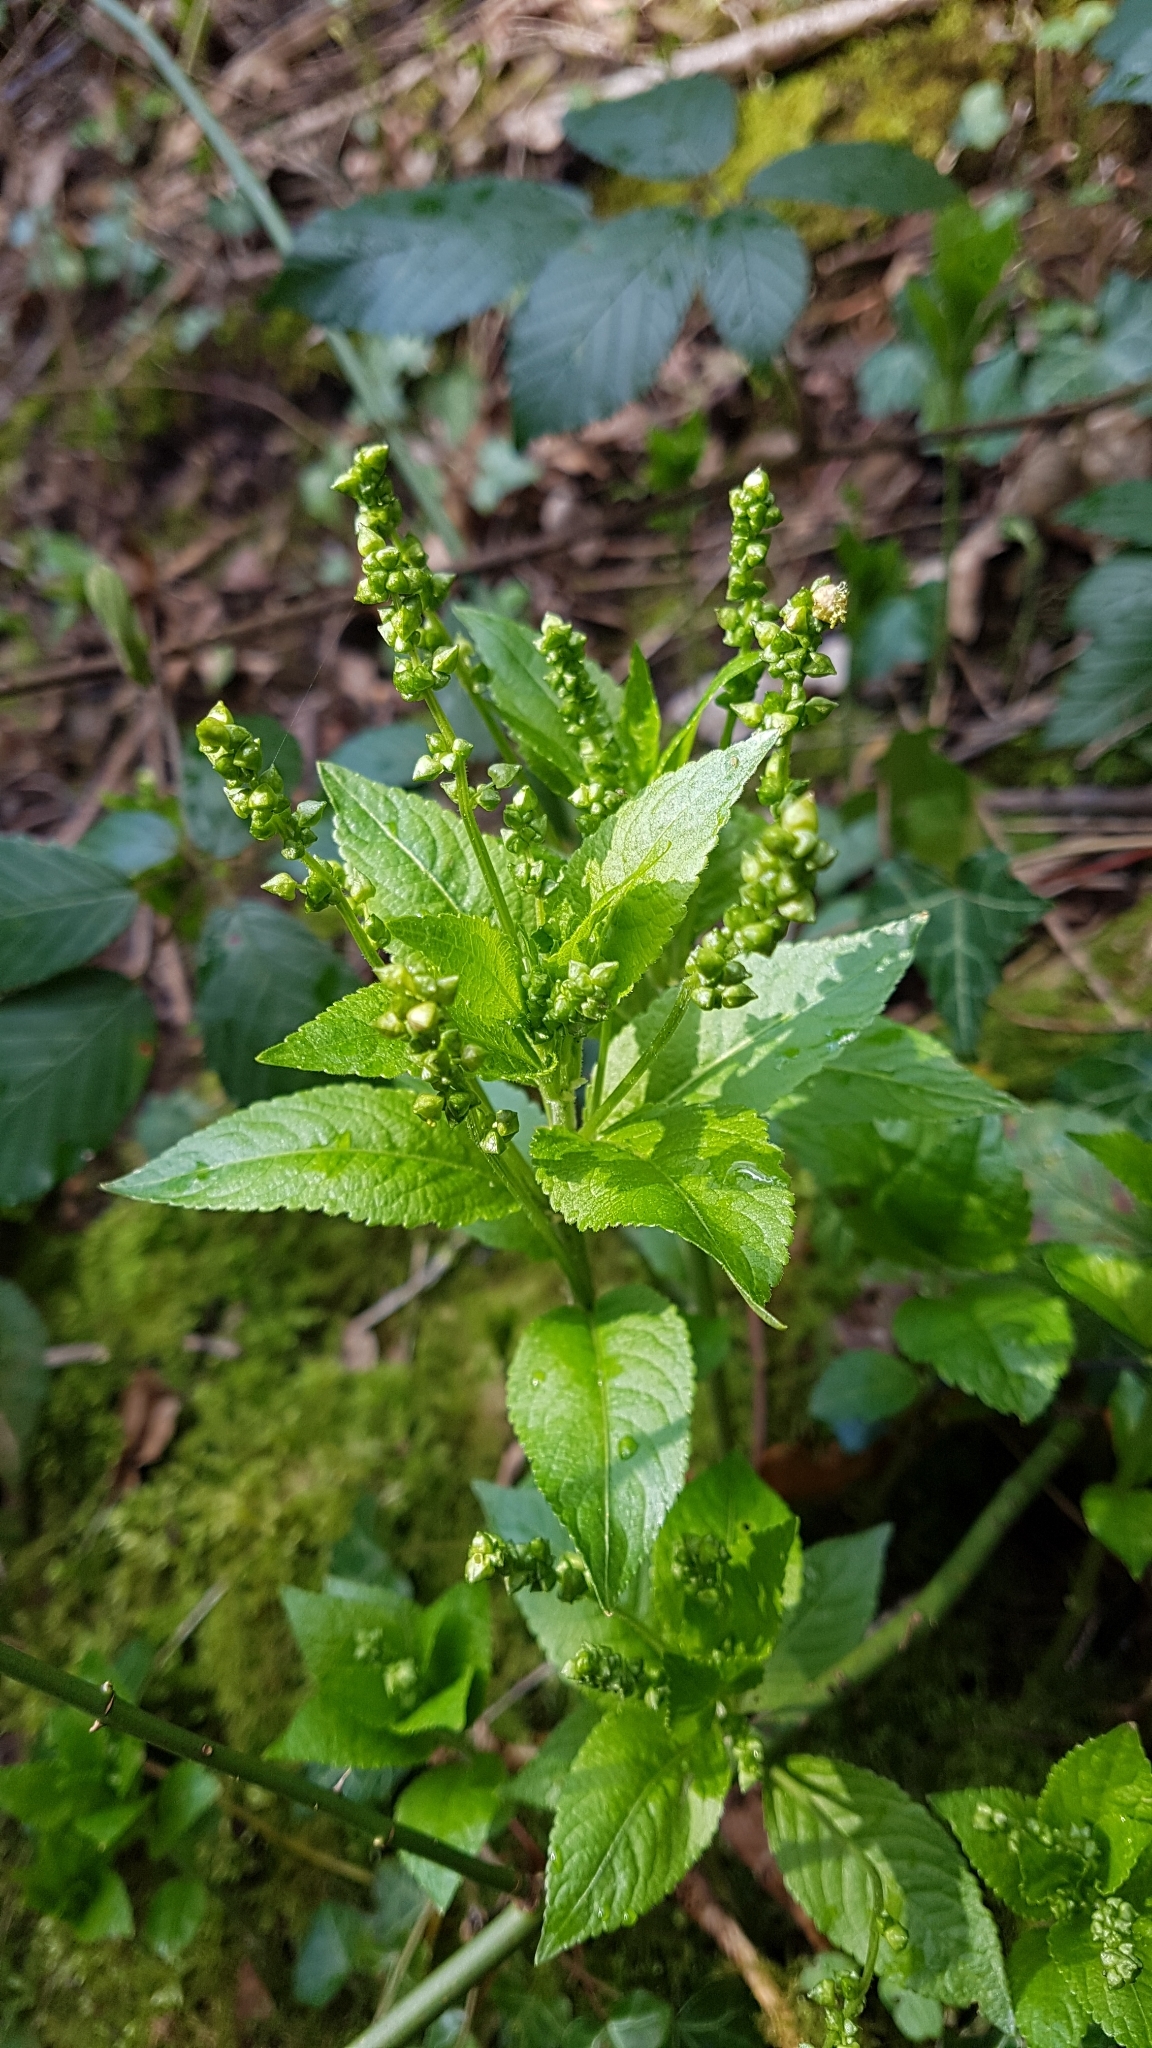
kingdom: Plantae
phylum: Tracheophyta
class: Magnoliopsida
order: Malpighiales
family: Euphorbiaceae
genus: Mercurialis
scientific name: Mercurialis perennis
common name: Dog mercury
